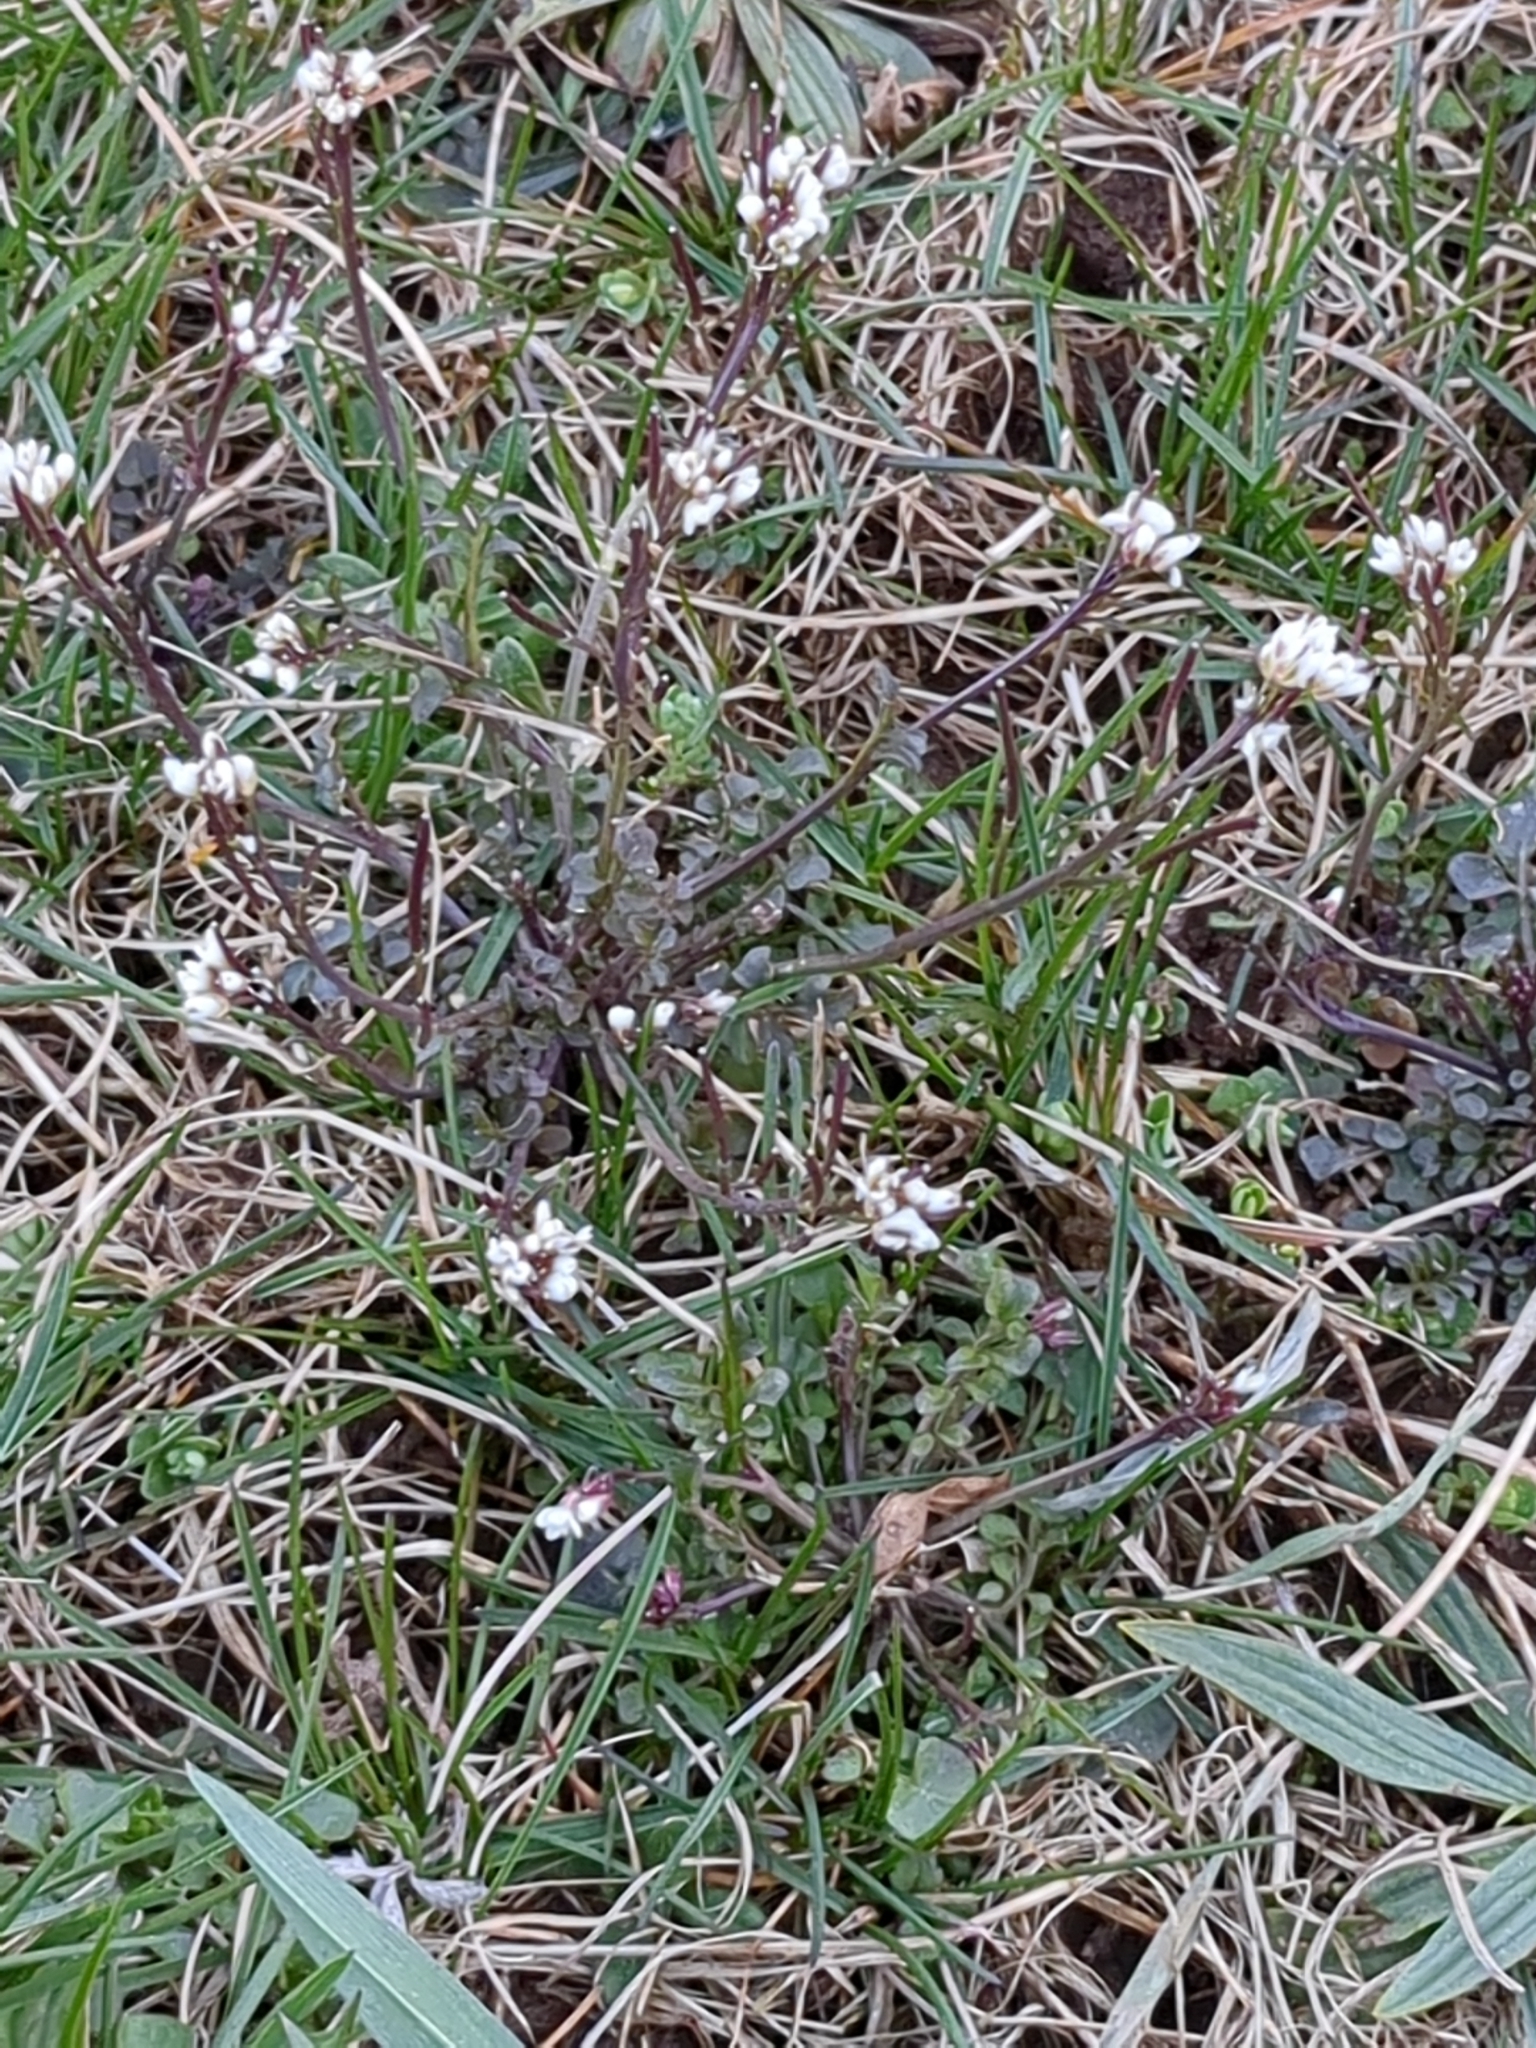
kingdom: Plantae
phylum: Tracheophyta
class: Magnoliopsida
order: Brassicales
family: Brassicaceae
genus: Cardamine
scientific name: Cardamine hirsuta
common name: Hairy bittercress
